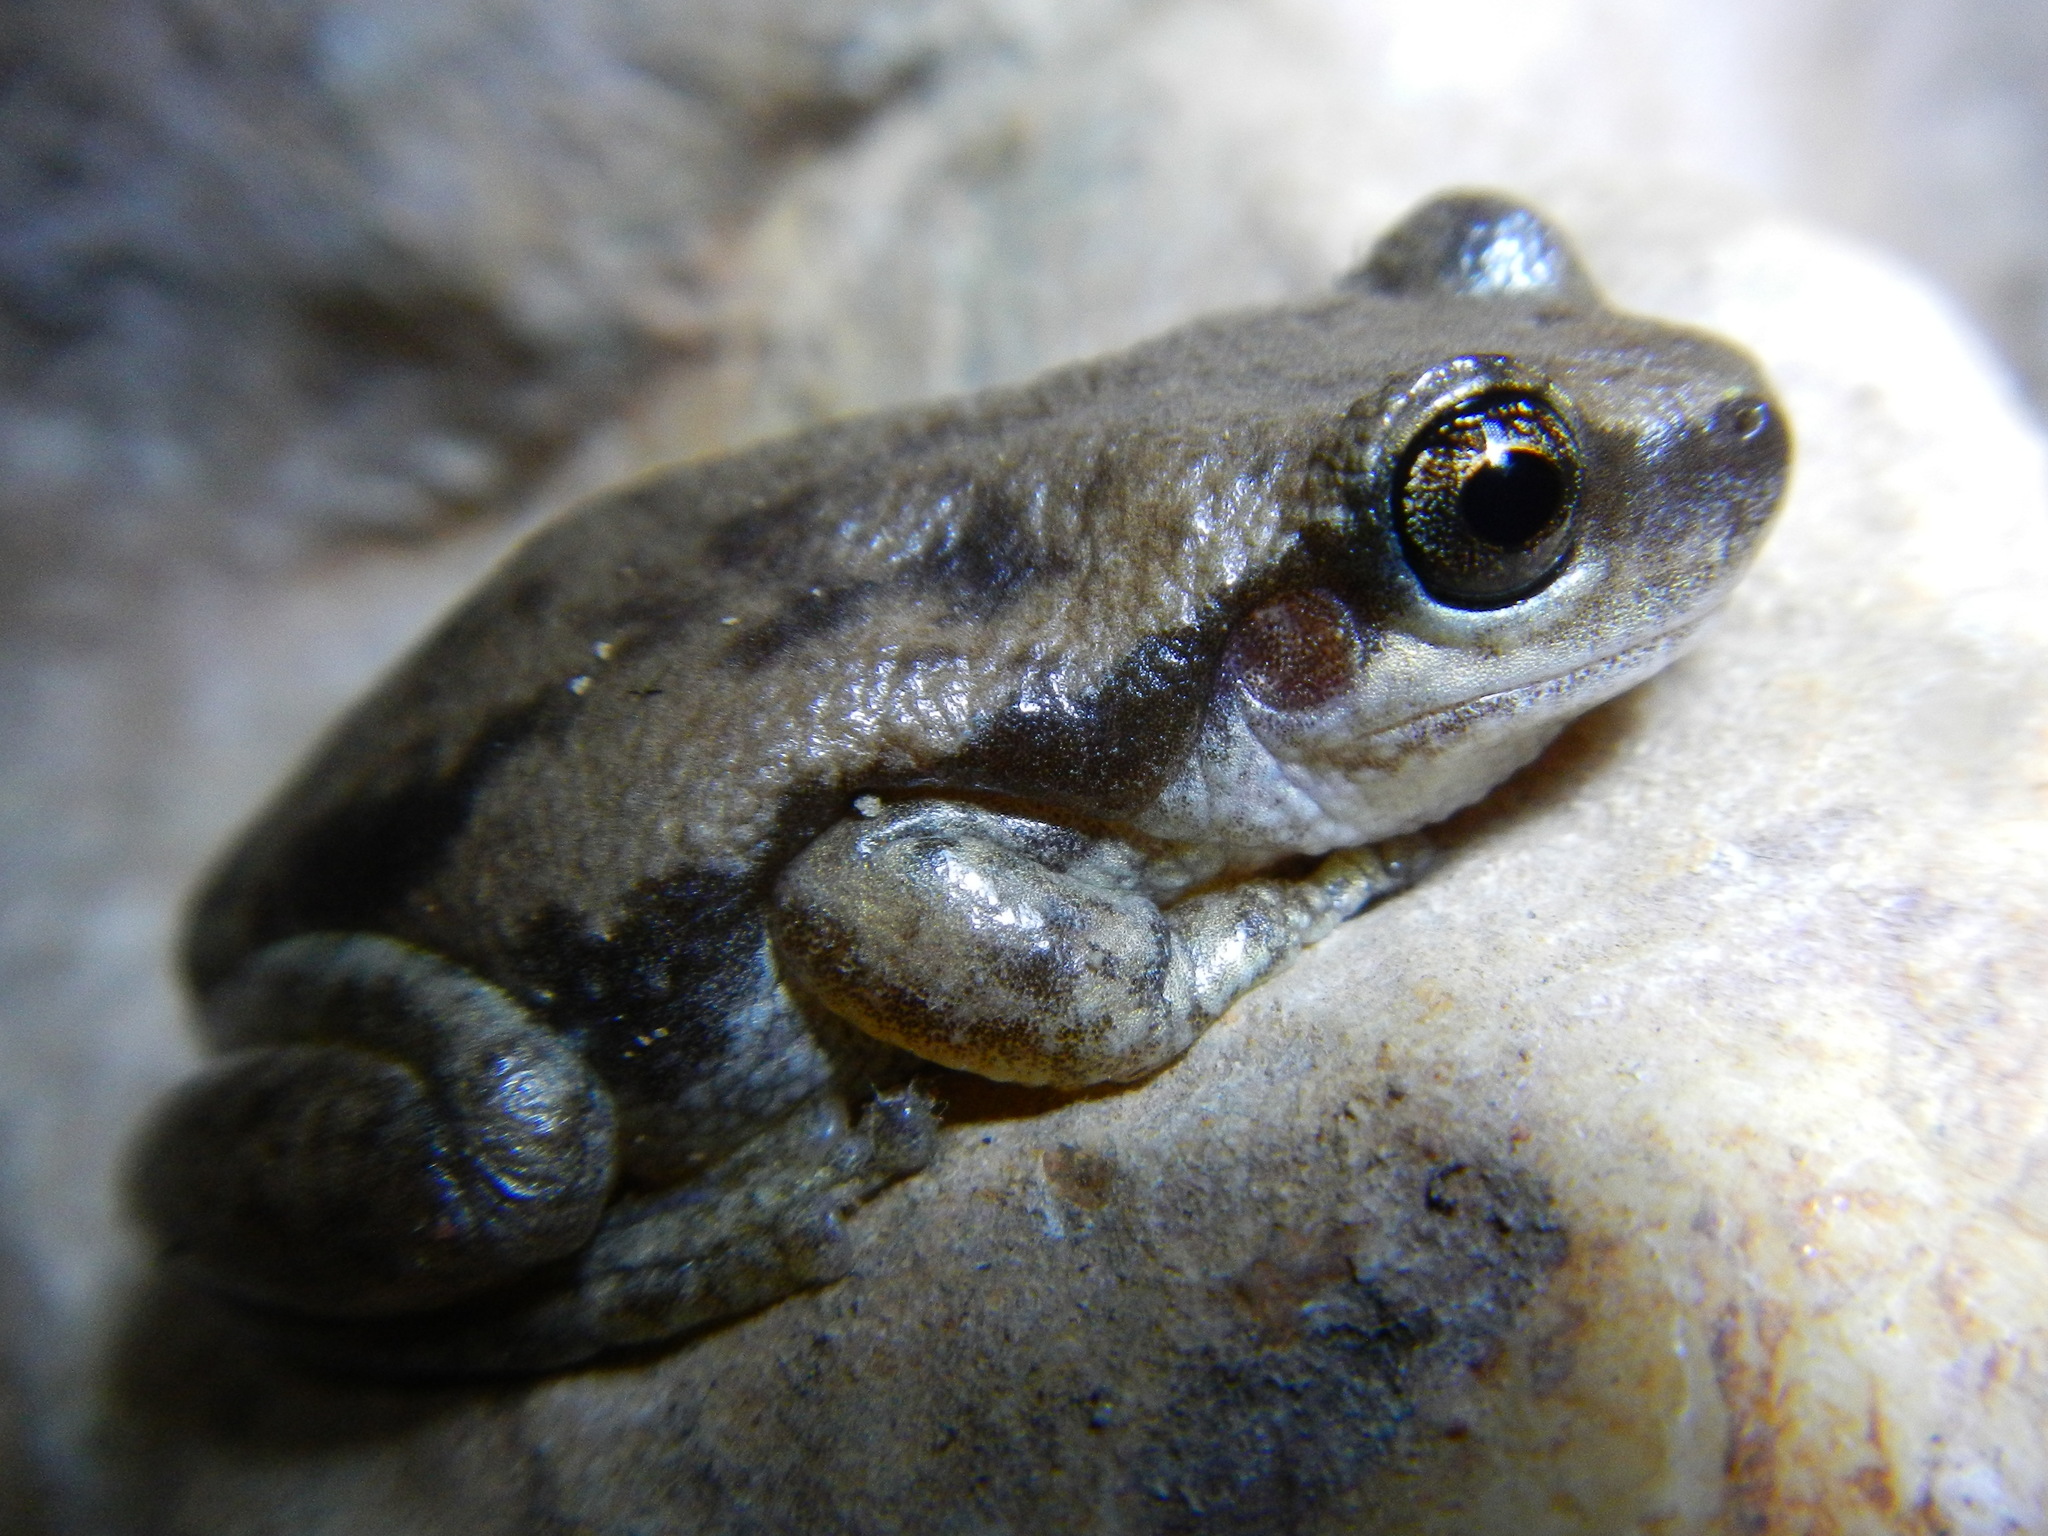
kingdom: Animalia
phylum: Chordata
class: Amphibia
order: Anura
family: Pelodryadidae
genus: Litoria
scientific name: Litoria rubella
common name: Desert tree frog
